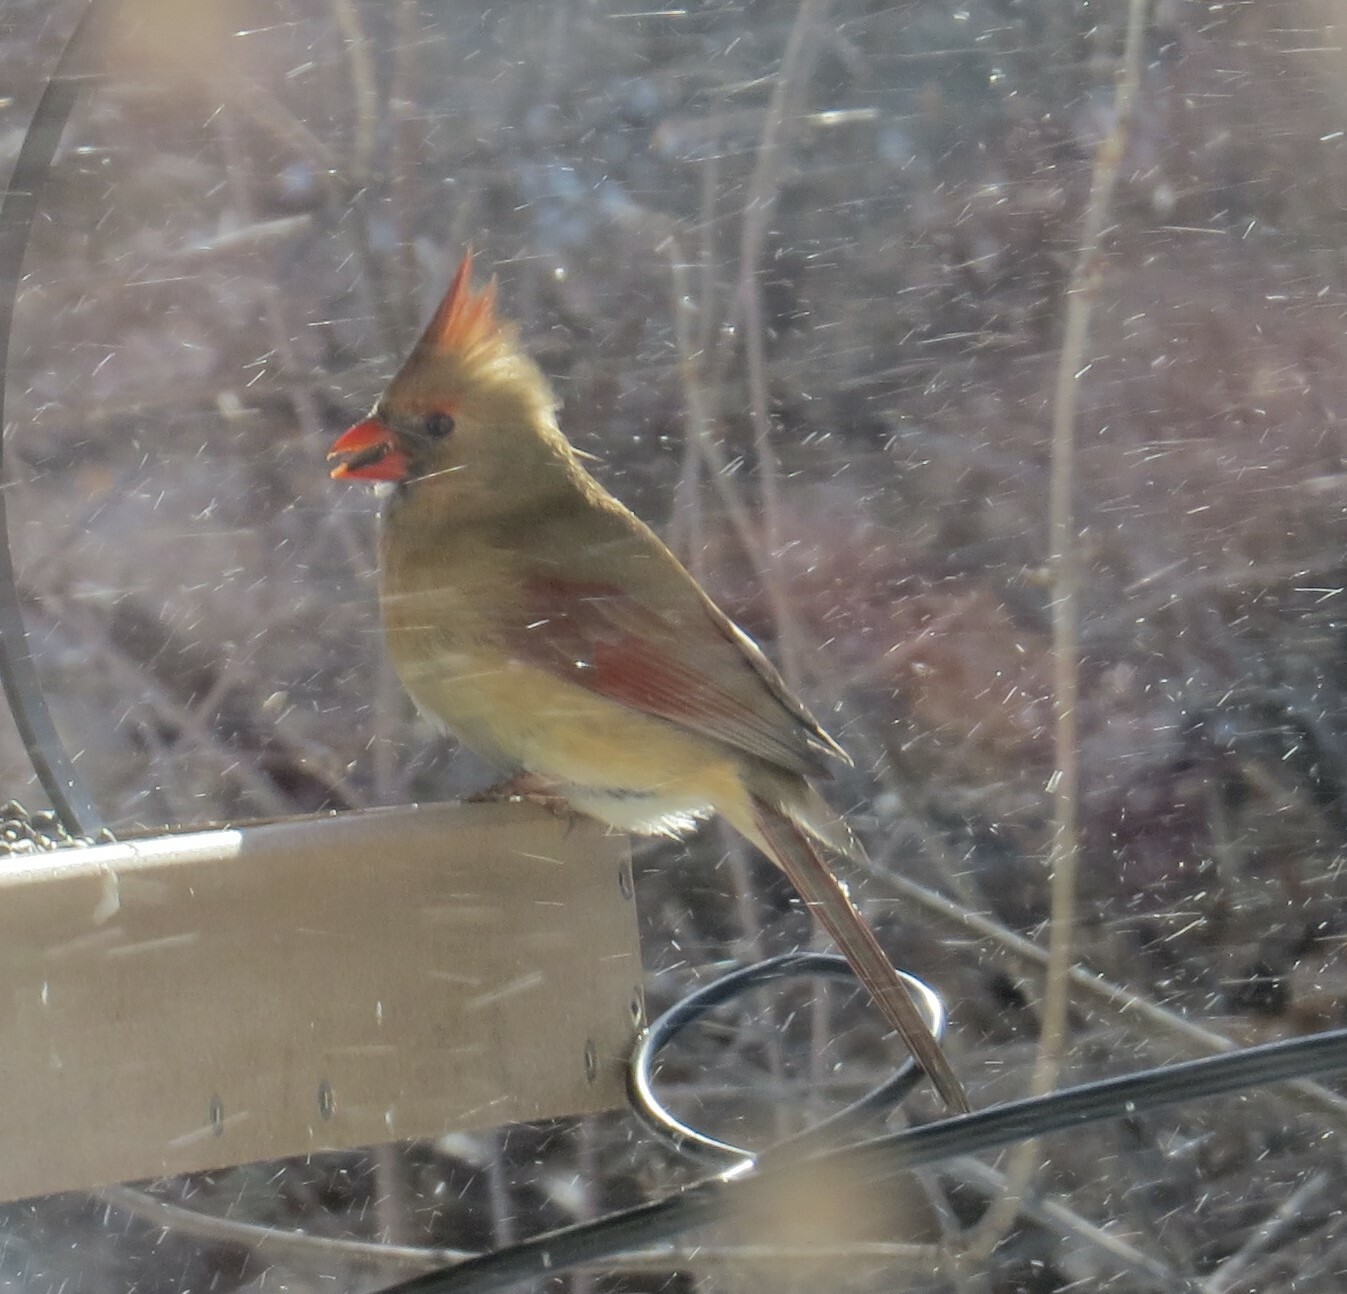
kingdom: Animalia
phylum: Chordata
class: Aves
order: Passeriformes
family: Cardinalidae
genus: Cardinalis
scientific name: Cardinalis cardinalis
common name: Northern cardinal
